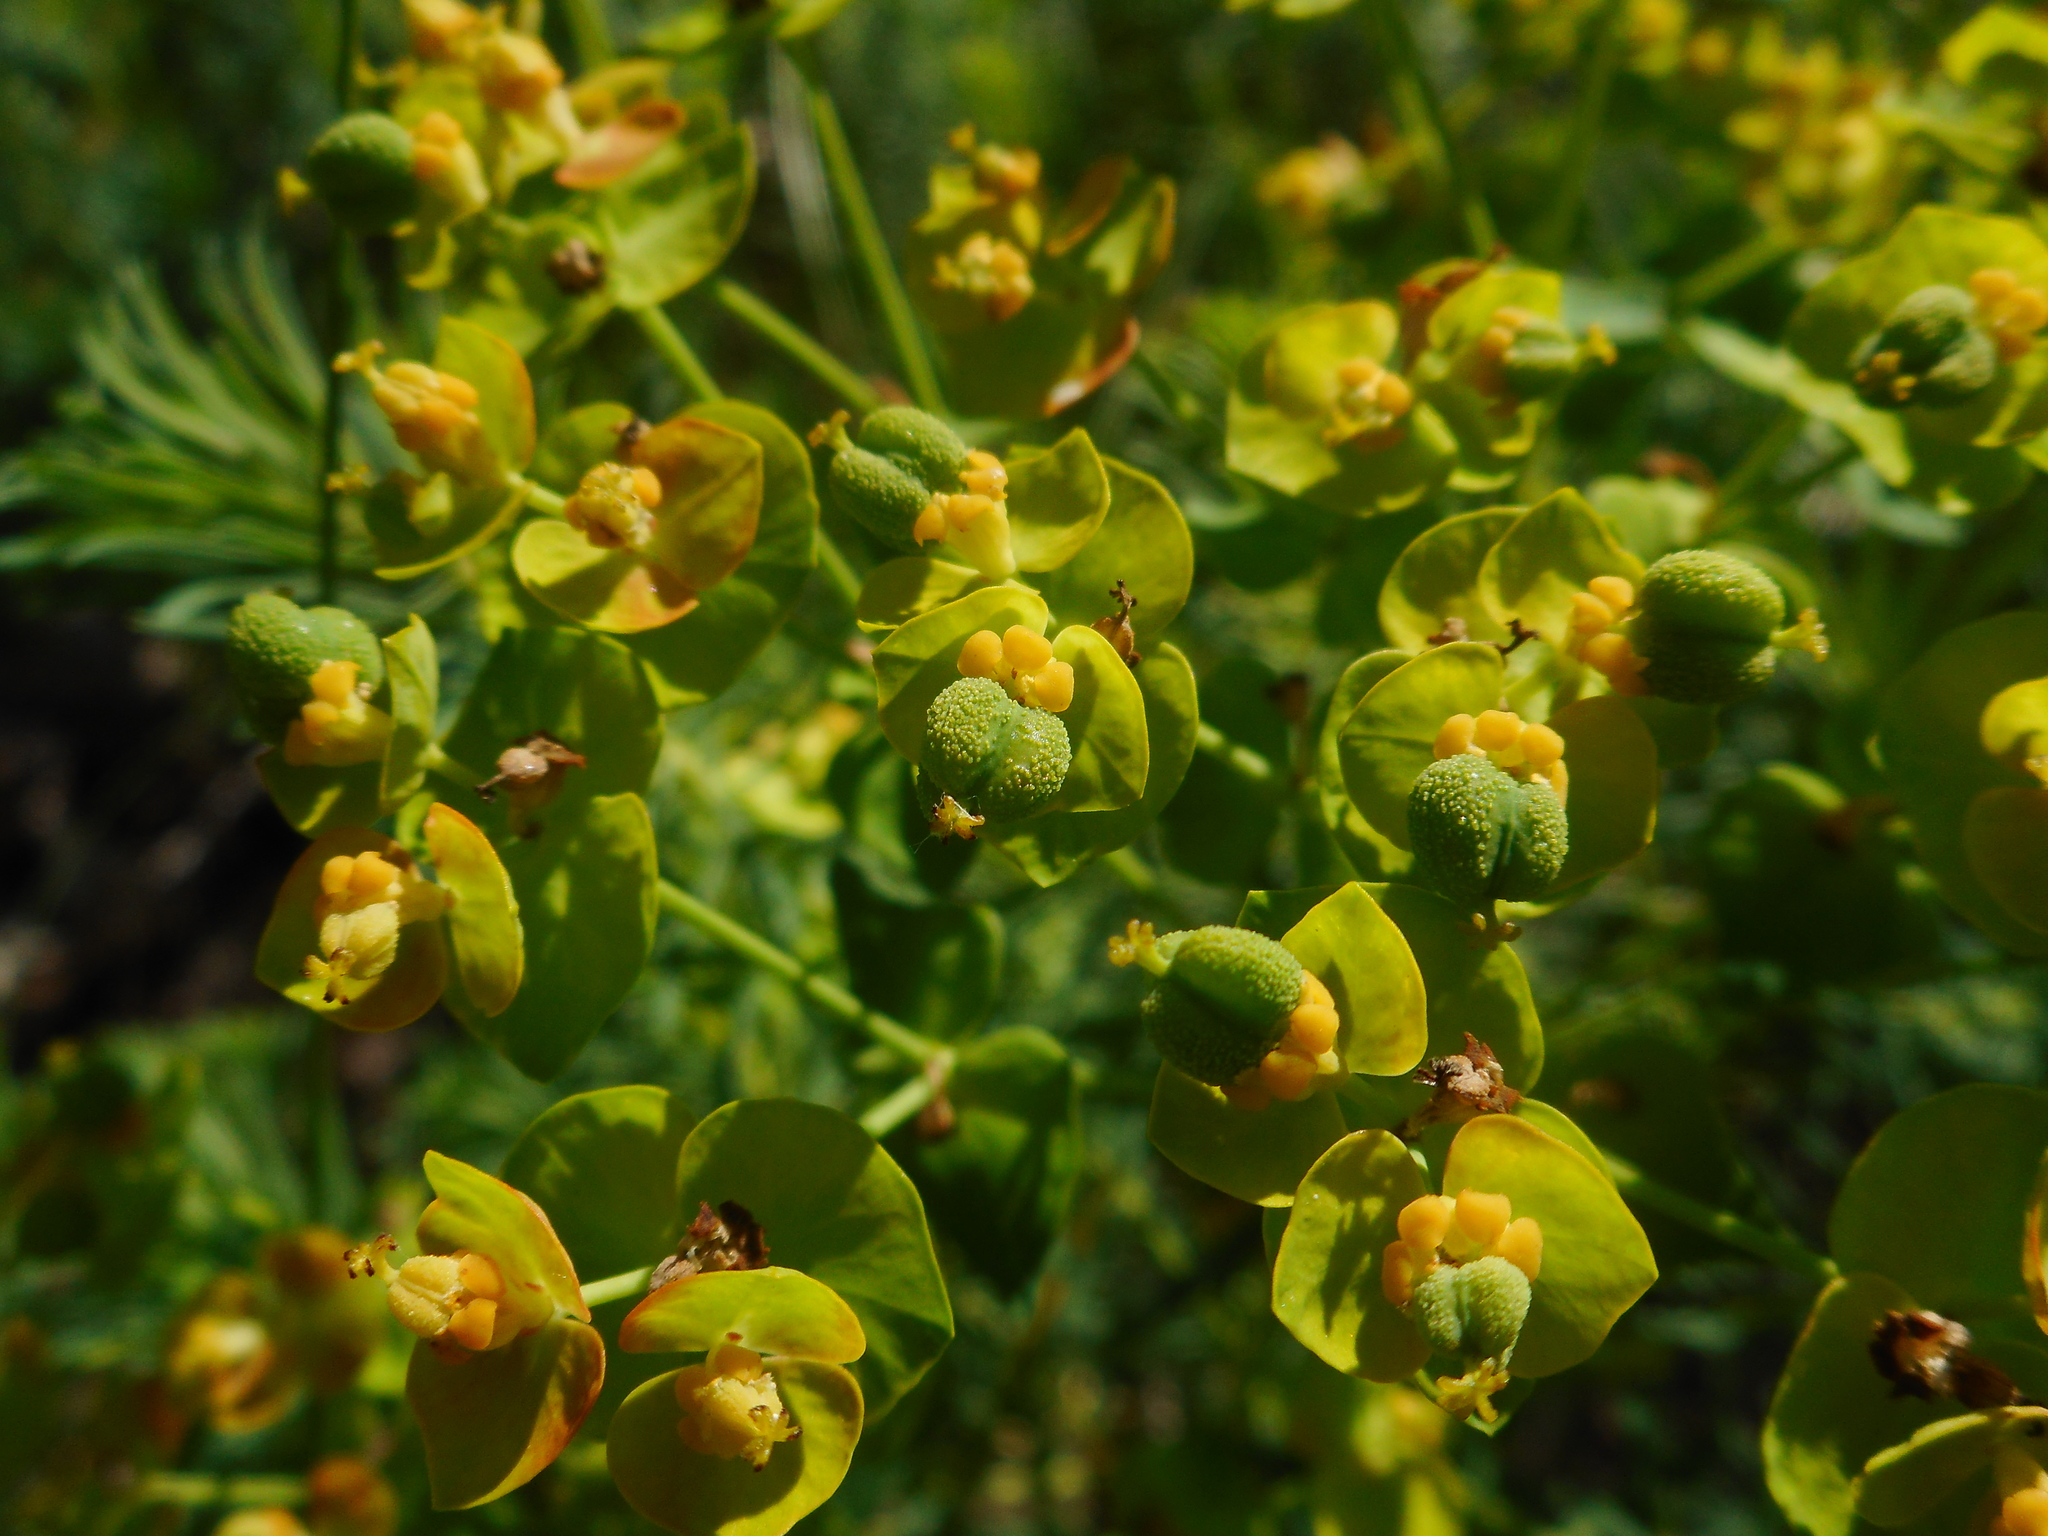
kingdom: Plantae
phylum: Tracheophyta
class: Magnoliopsida
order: Malpighiales
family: Euphorbiaceae
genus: Euphorbia
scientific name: Euphorbia cyparissias
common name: Cypress spurge
